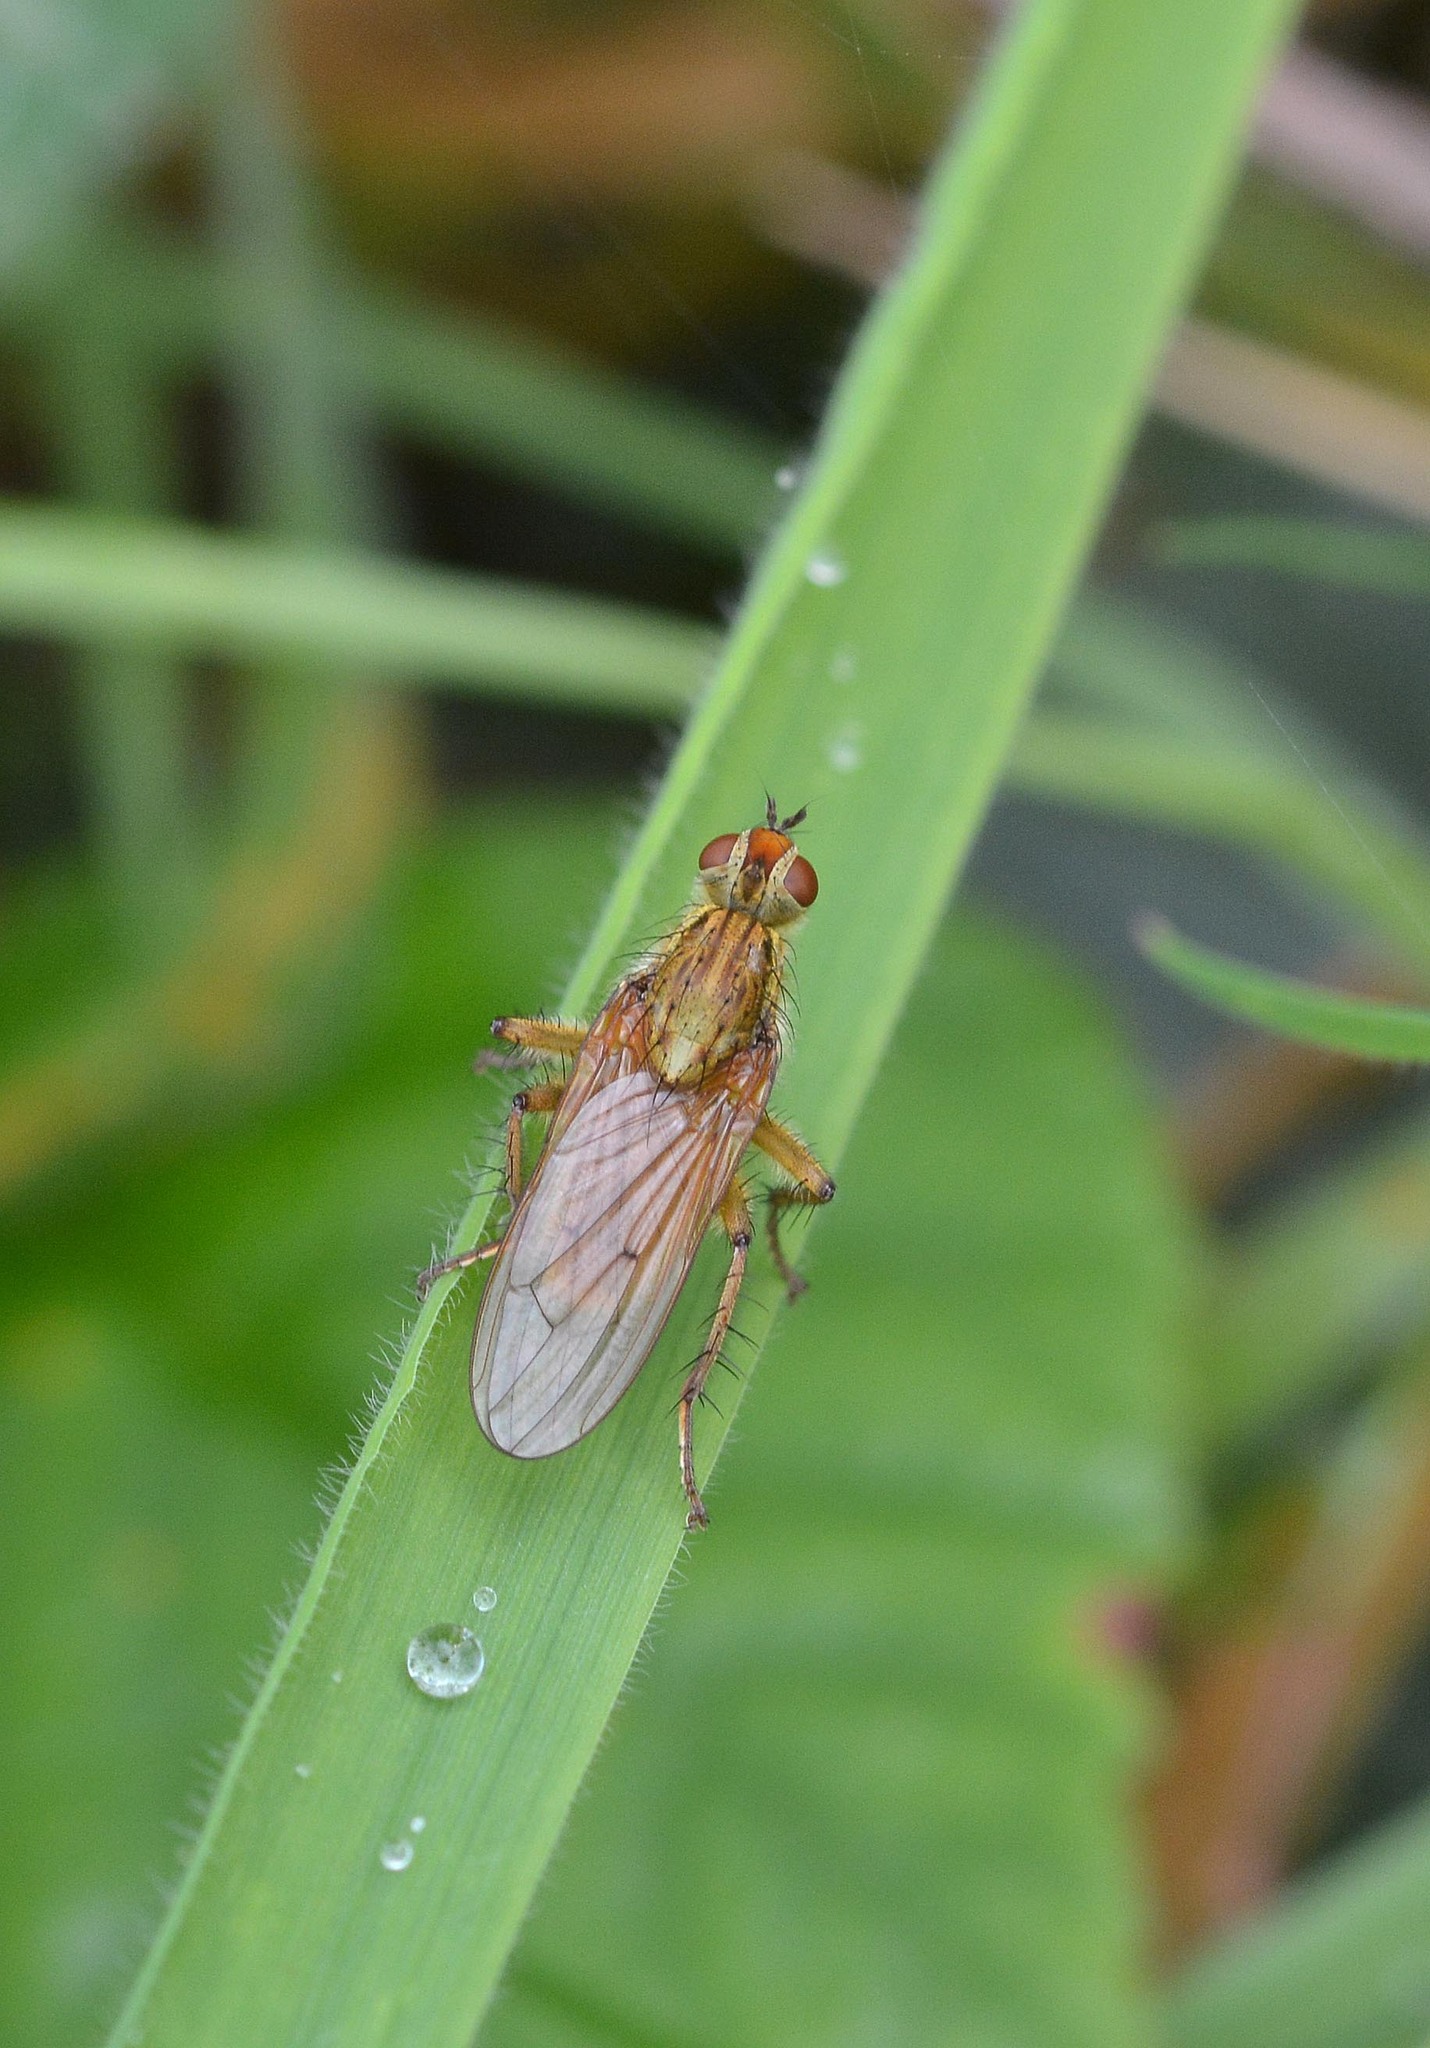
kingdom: Animalia
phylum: Arthropoda
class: Insecta
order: Diptera
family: Scathophagidae
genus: Scathophaga
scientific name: Scathophaga stercoraria
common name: Yellow dung fly
